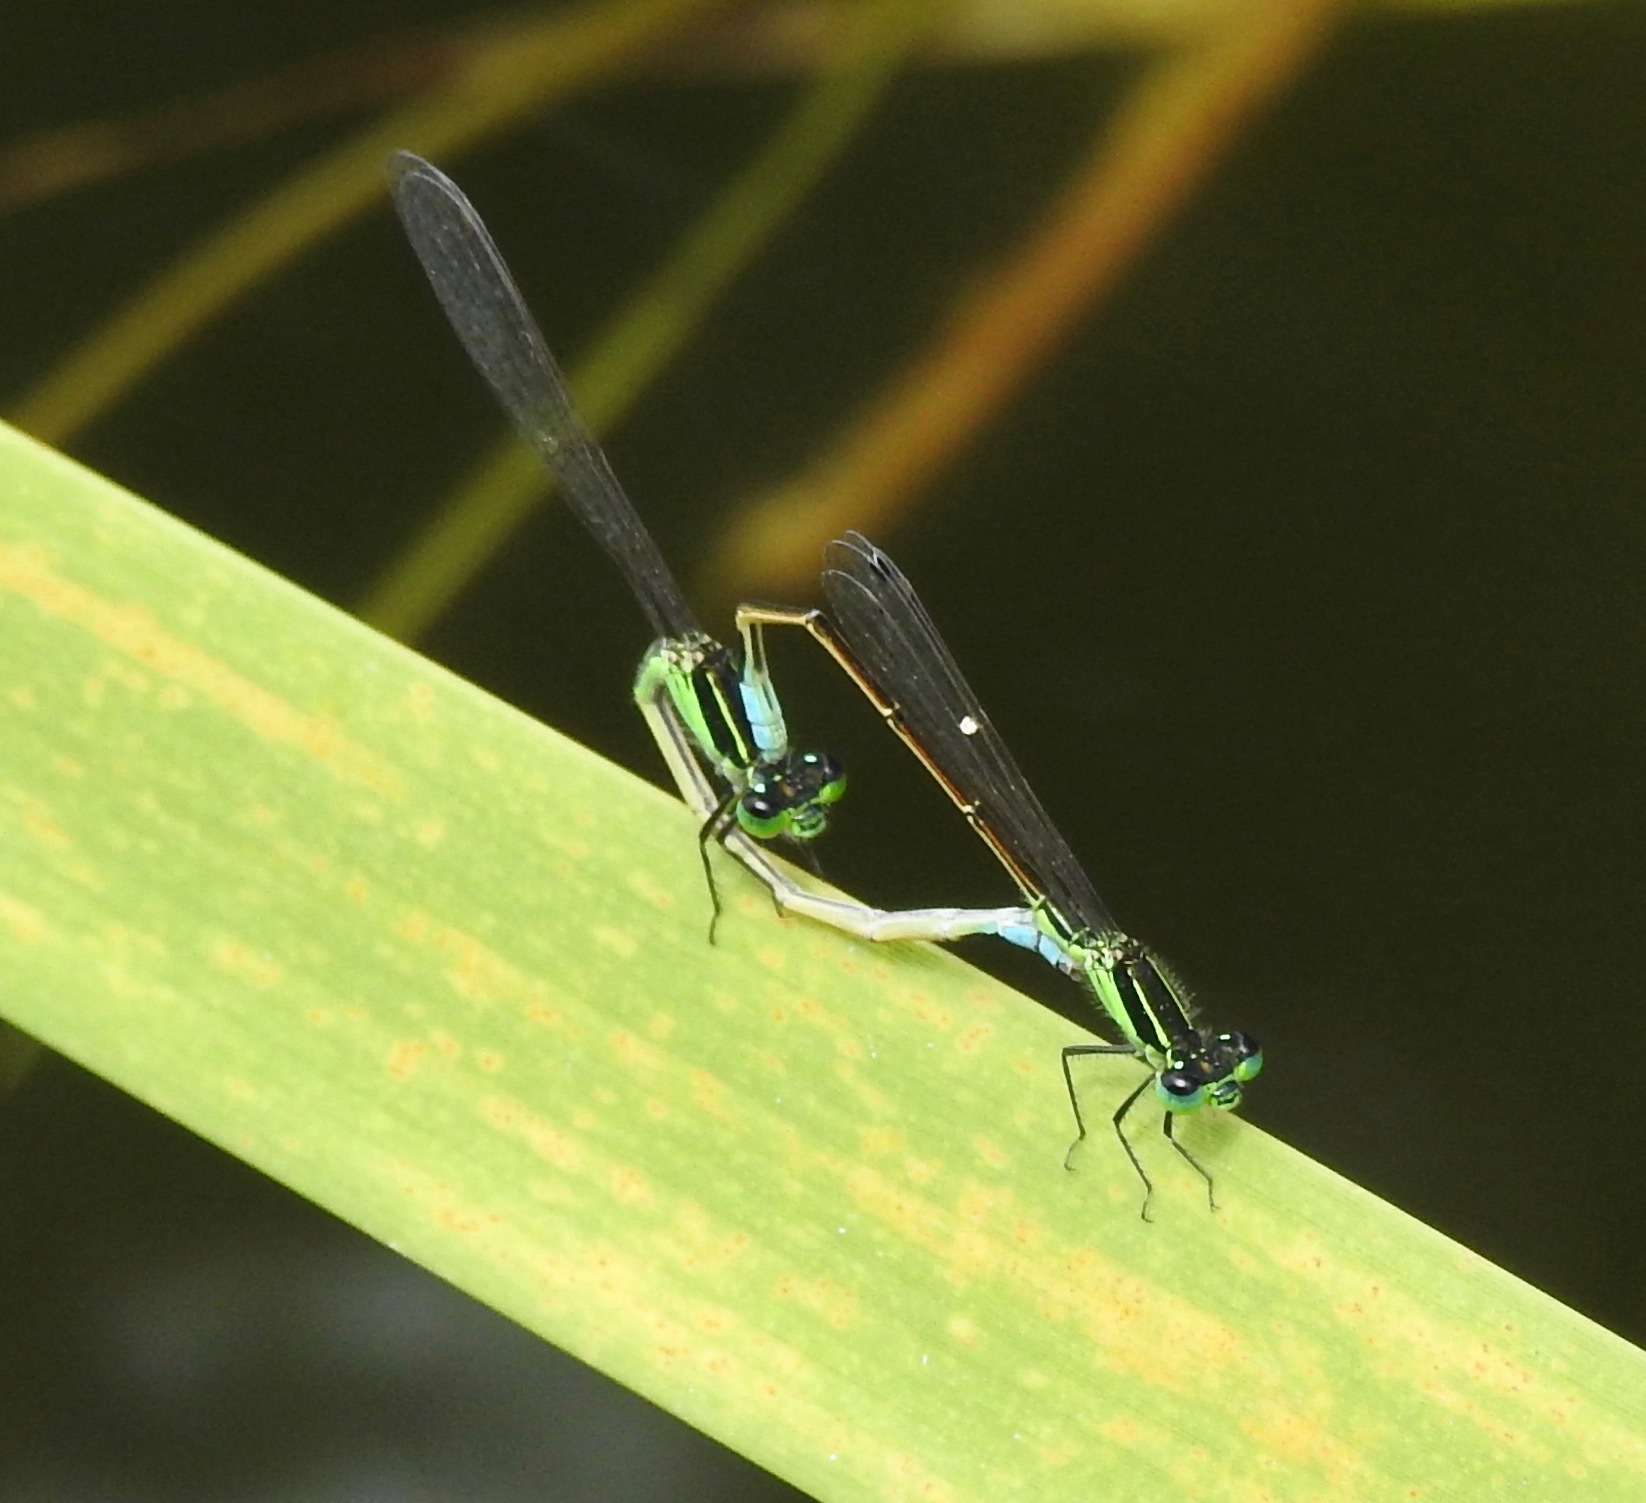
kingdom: Animalia
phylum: Arthropoda
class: Insecta
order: Odonata
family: Coenagrionidae
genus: Ischnura
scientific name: Ischnura ramburii
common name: Rambur's forktail
